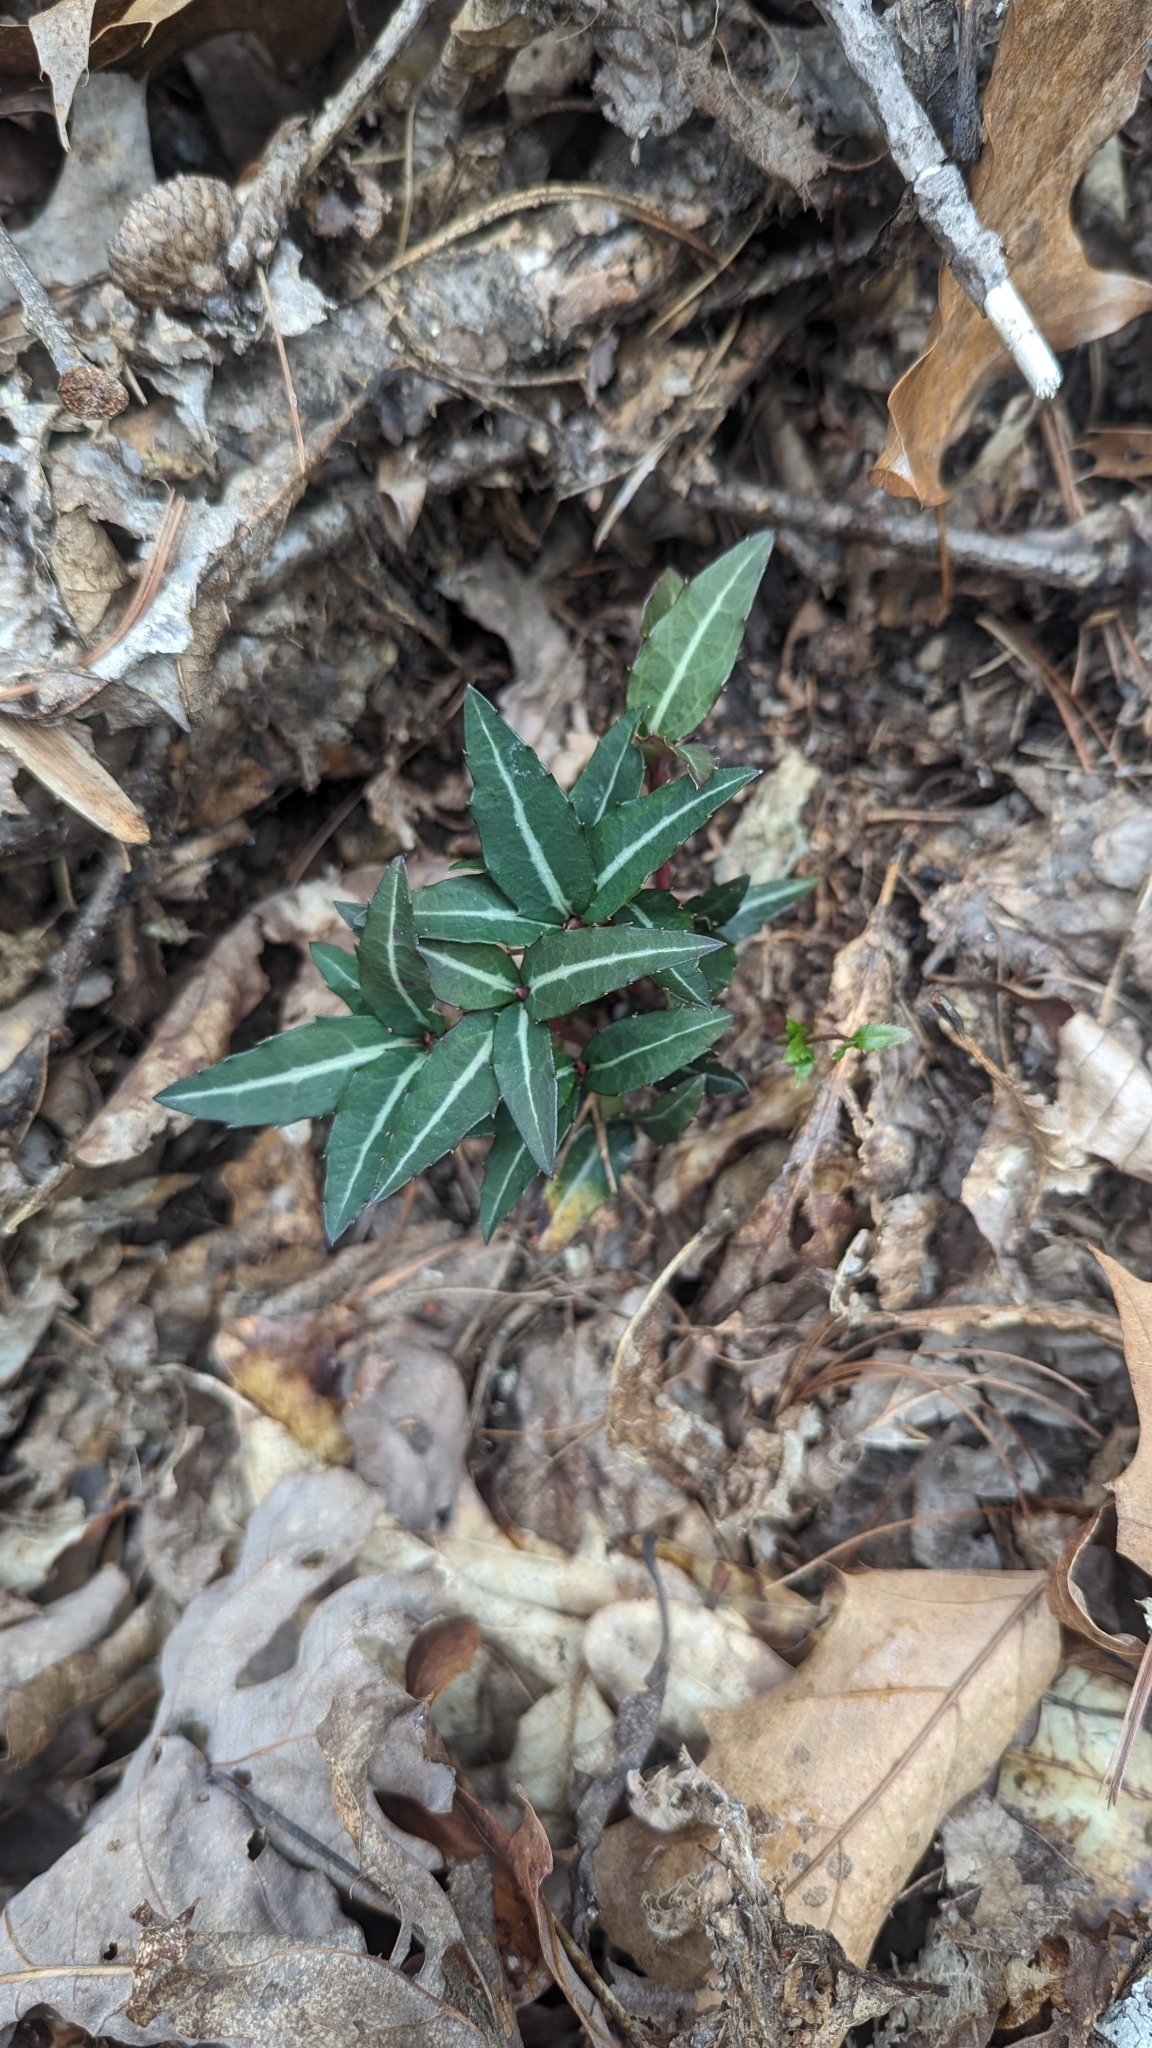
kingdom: Plantae
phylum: Tracheophyta
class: Magnoliopsida
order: Ericales
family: Ericaceae
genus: Chimaphila
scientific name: Chimaphila maculata
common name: Spotted pipsissewa
